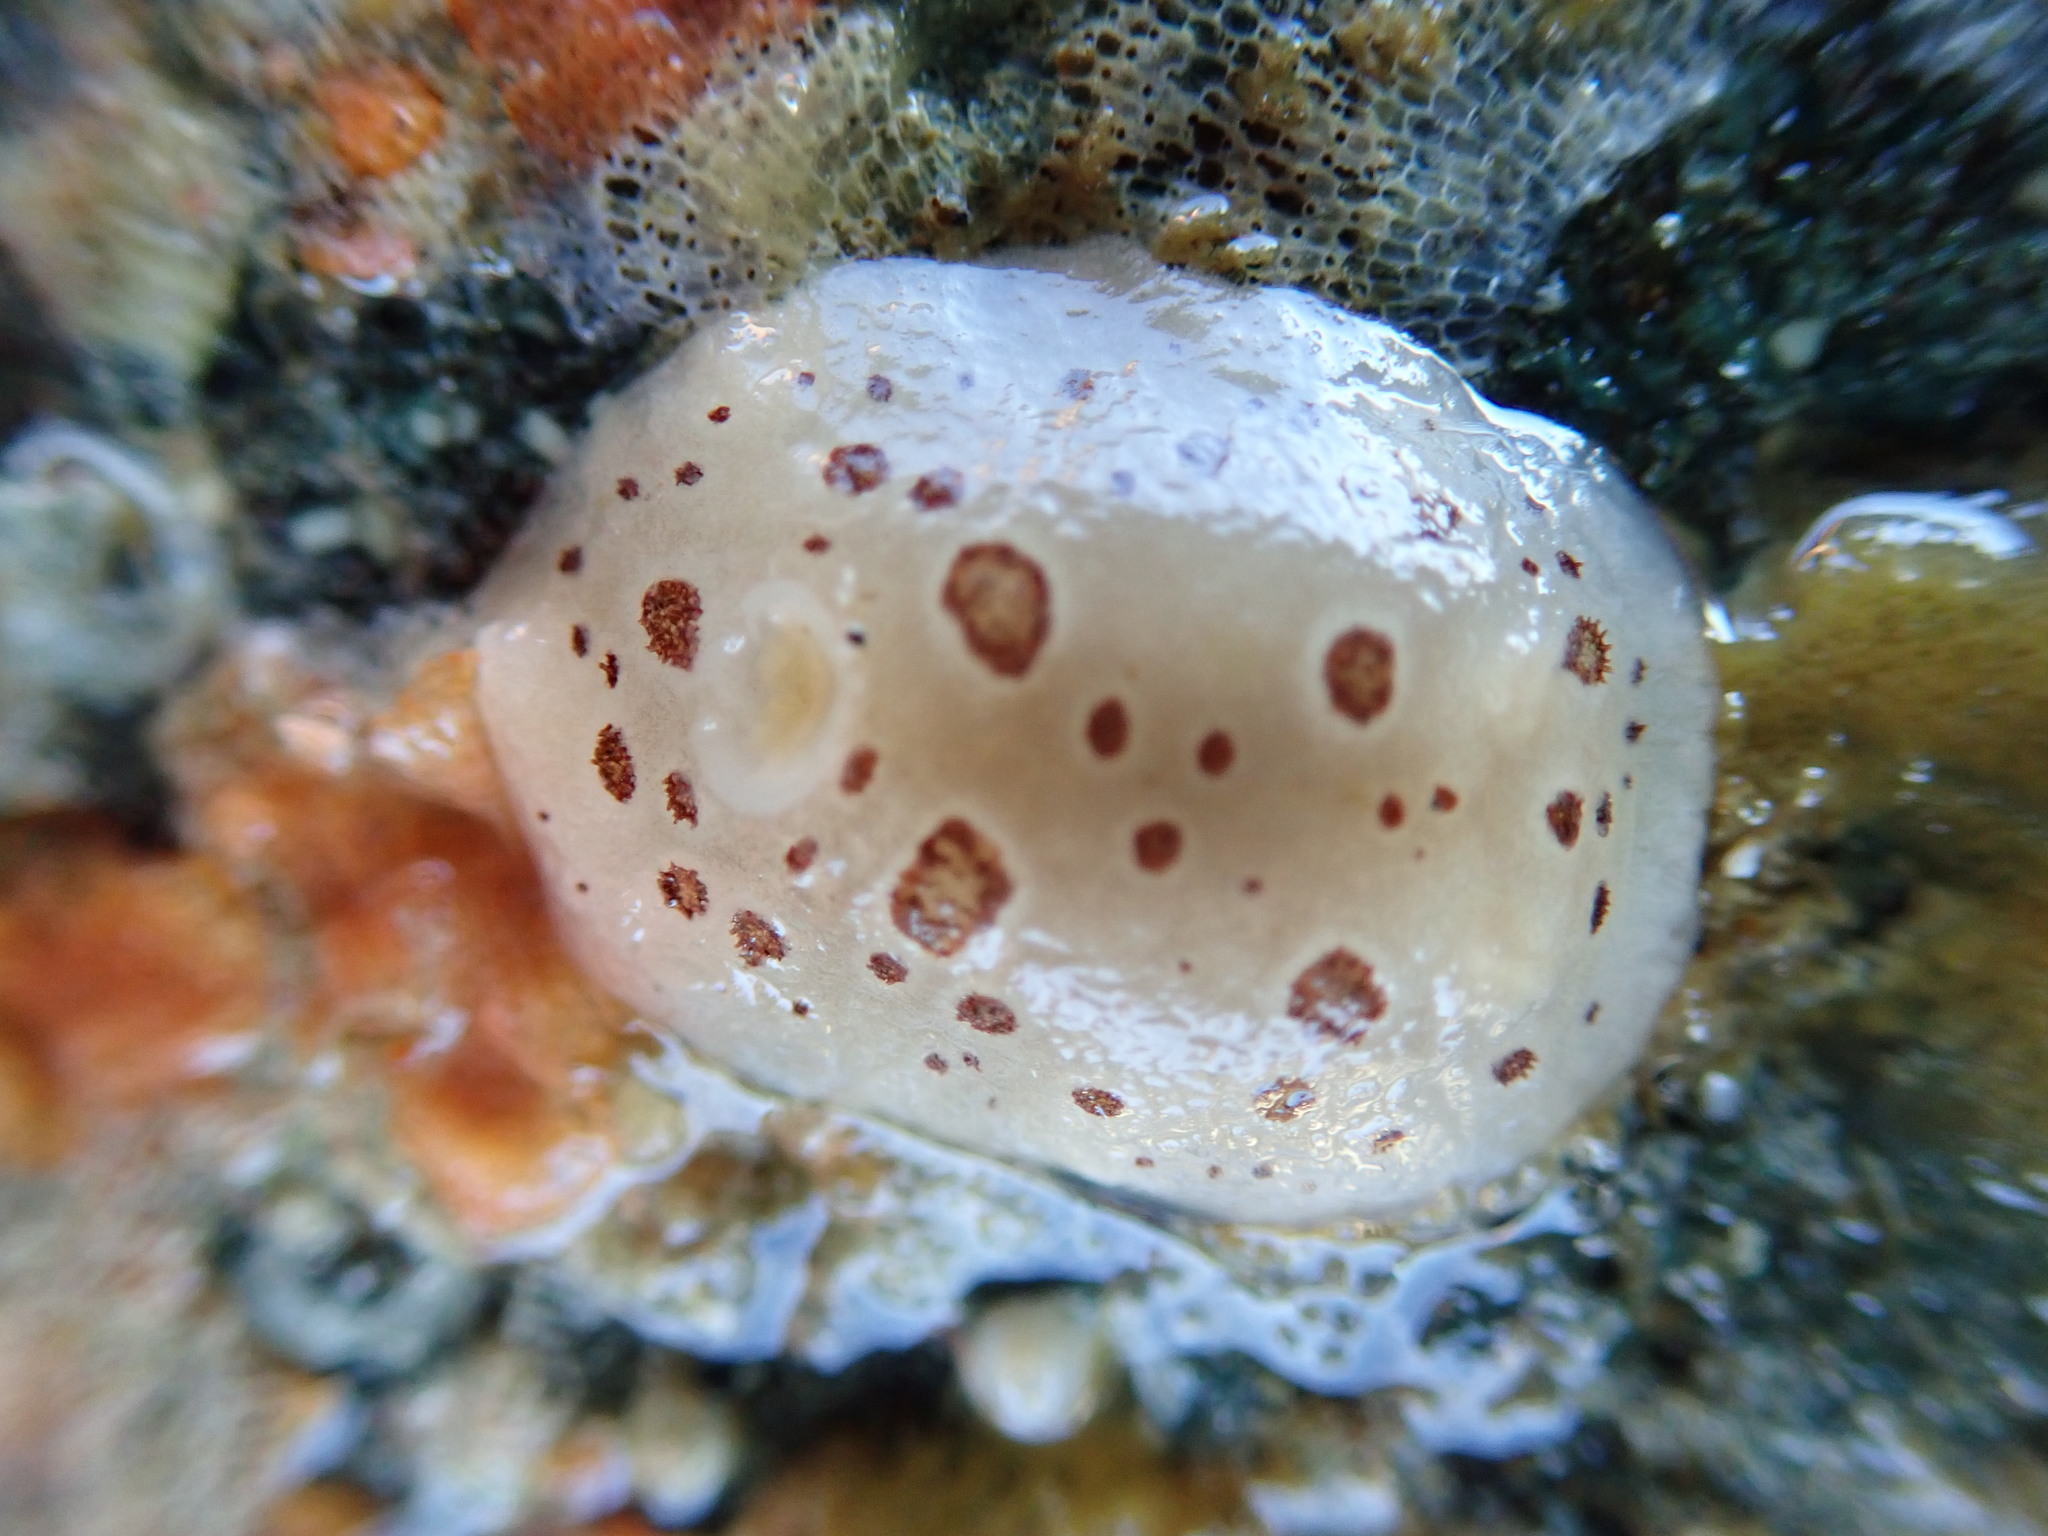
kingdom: Animalia
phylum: Mollusca
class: Gastropoda
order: Nudibranchia
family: Discodorididae
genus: Diaulula
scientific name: Diaulula odonoghuei
